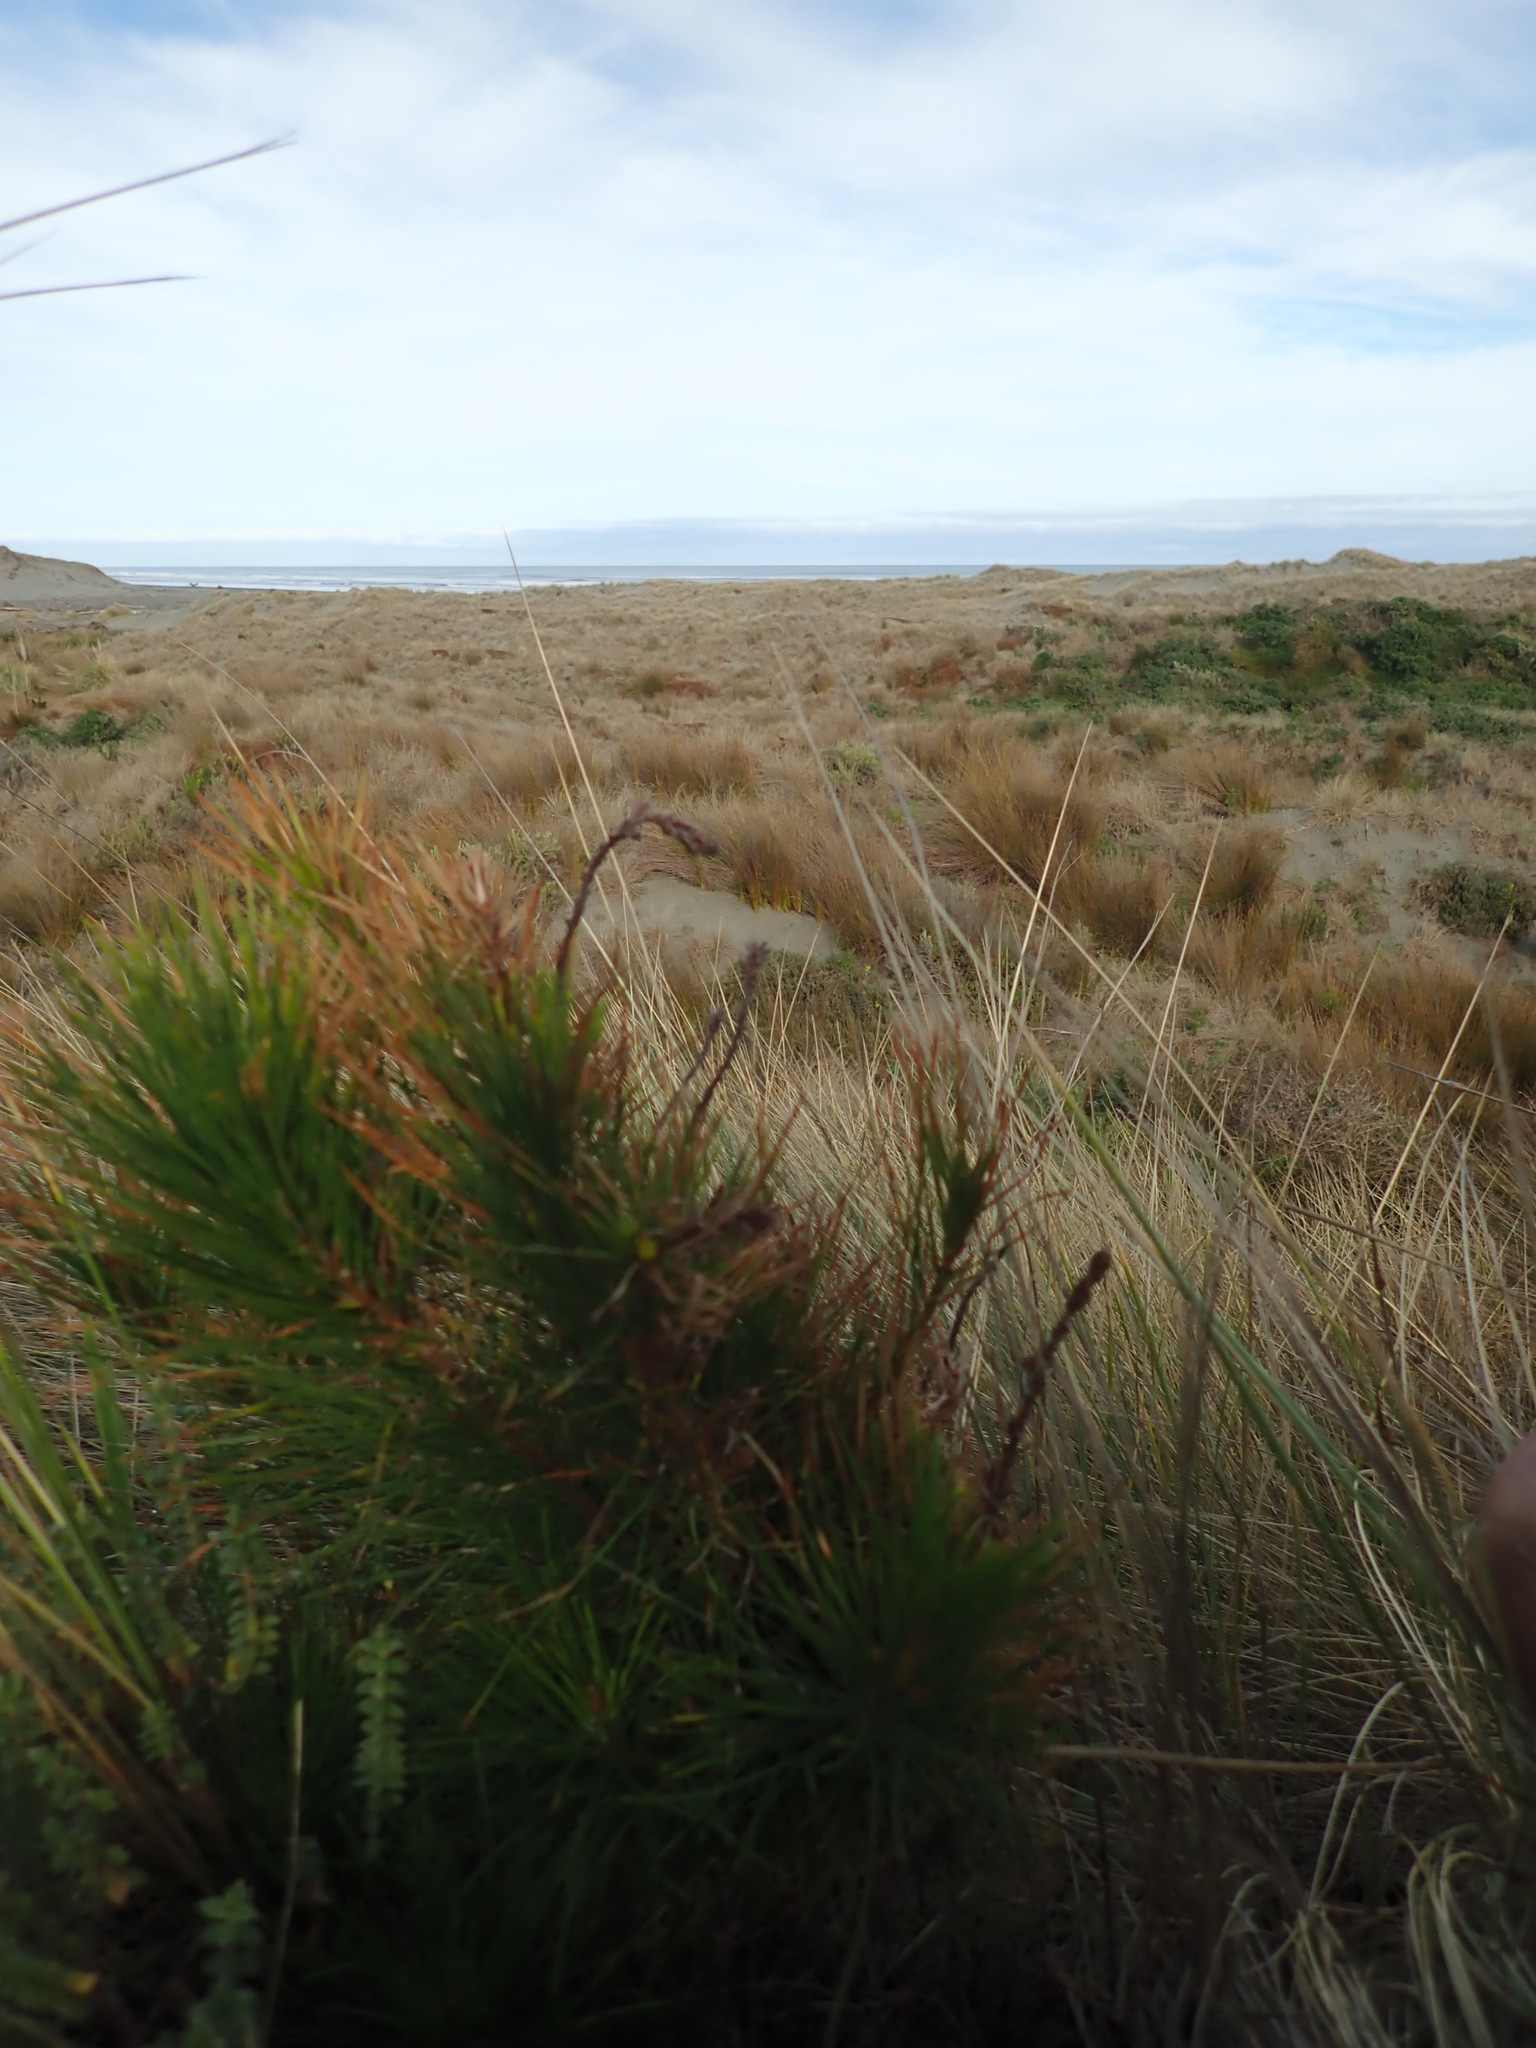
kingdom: Plantae
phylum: Tracheophyta
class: Pinopsida
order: Pinales
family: Pinaceae
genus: Pinus
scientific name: Pinus radiata
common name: Monterey pine
